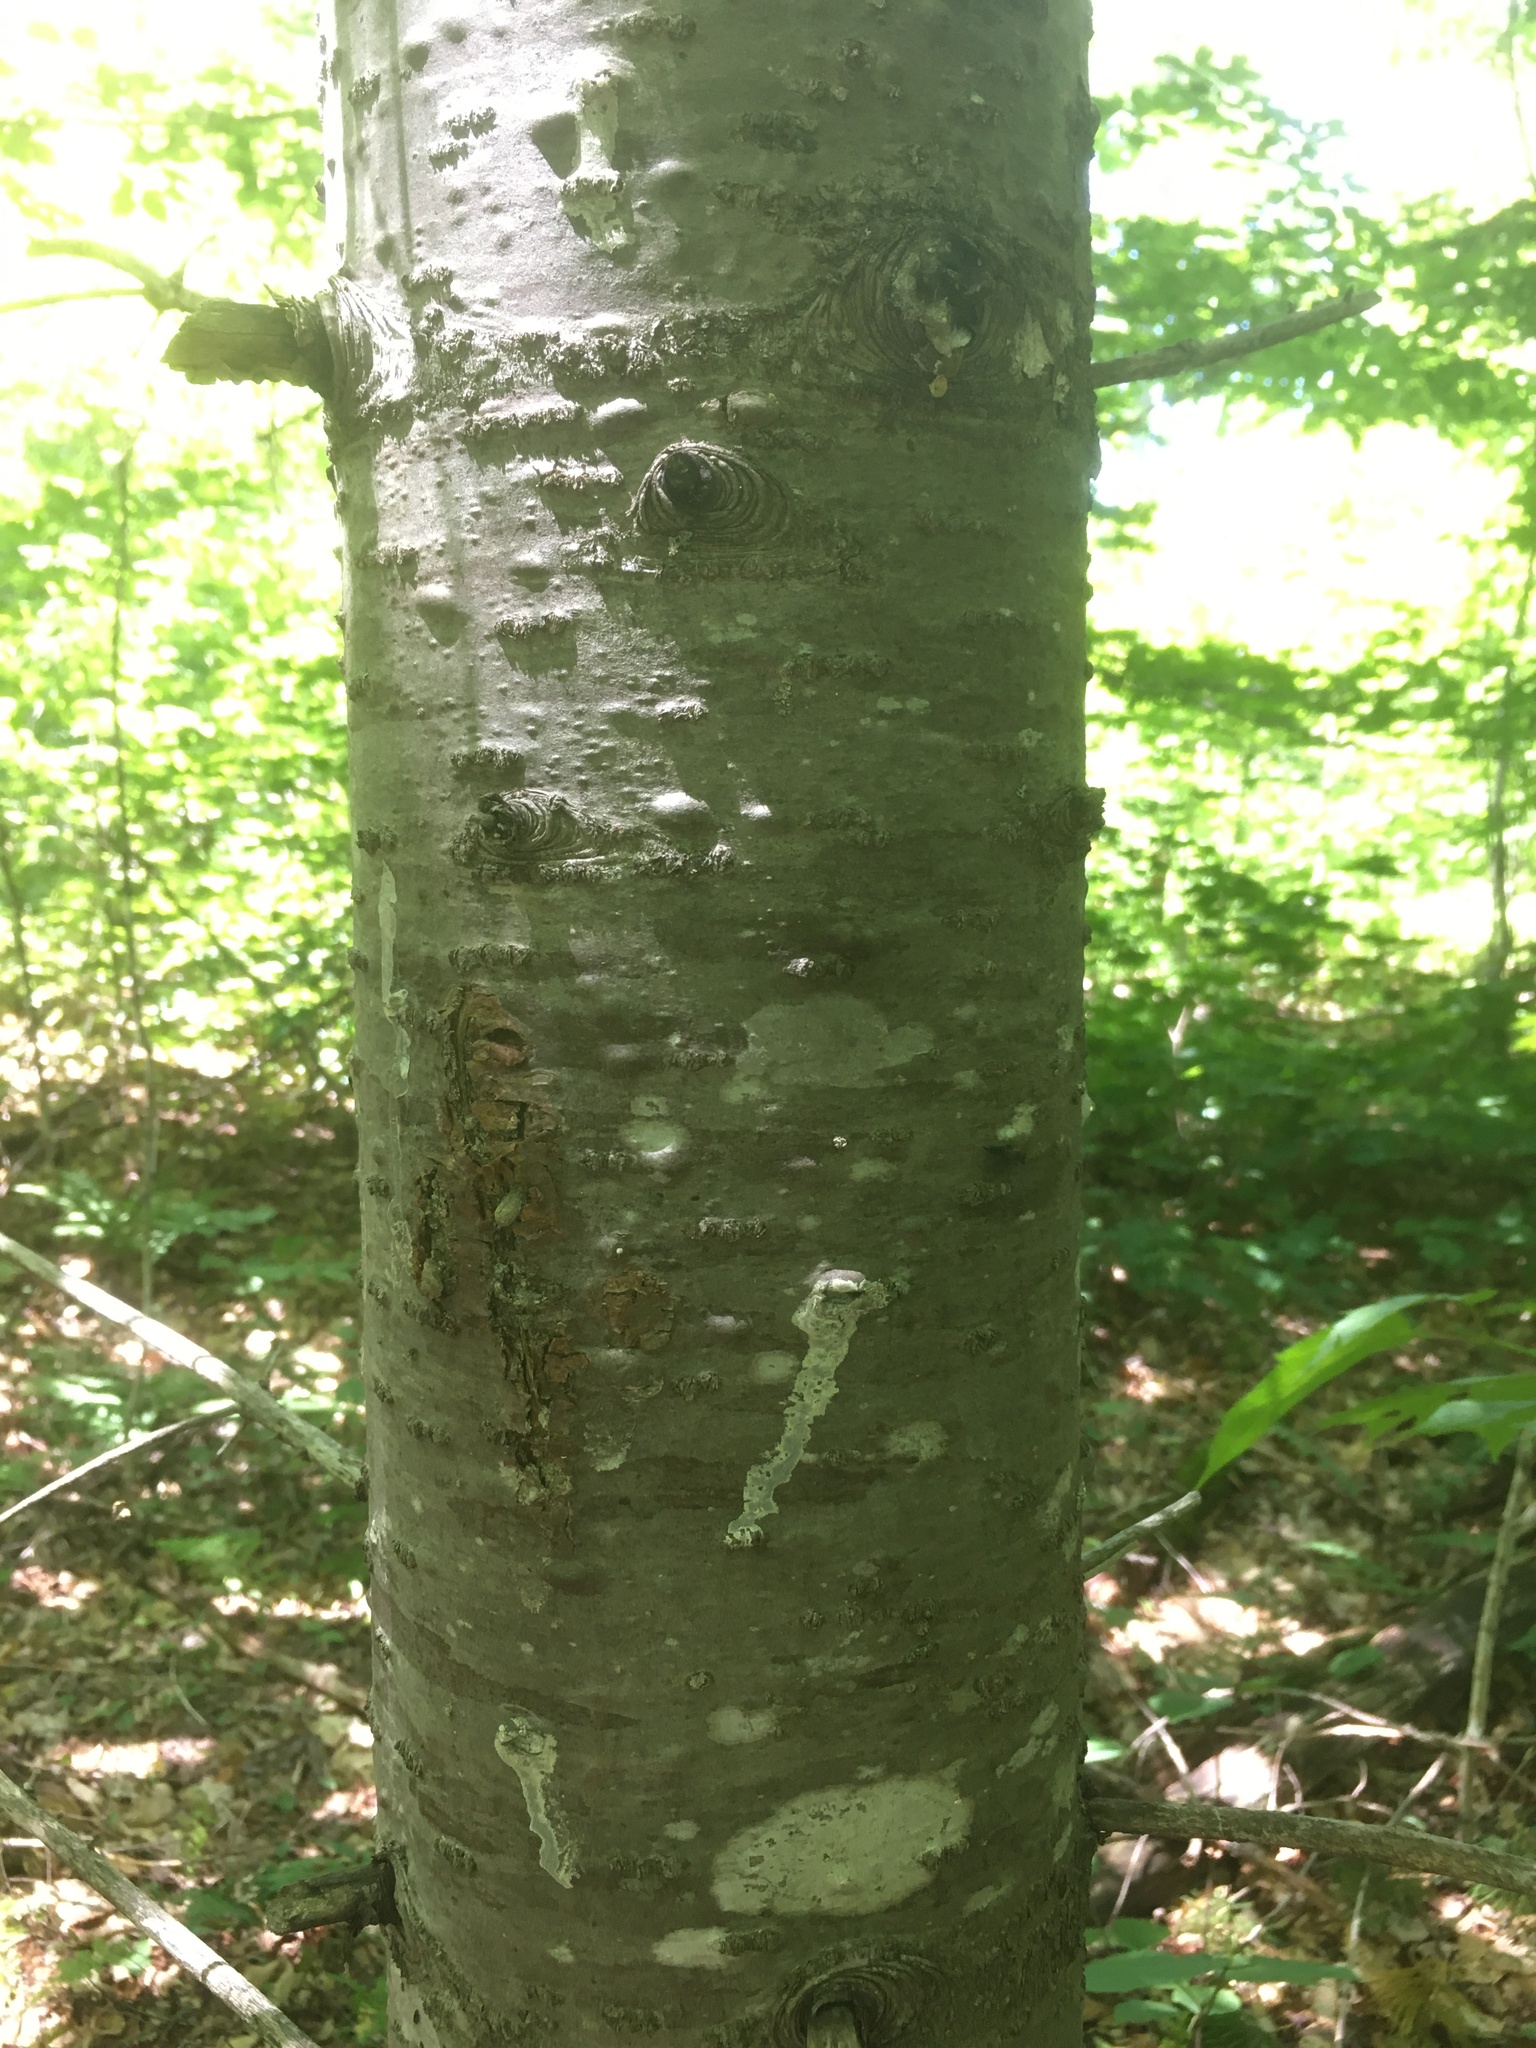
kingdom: Plantae
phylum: Tracheophyta
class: Pinopsida
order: Pinales
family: Pinaceae
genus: Abies
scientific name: Abies balsamea
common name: Balsam fir
